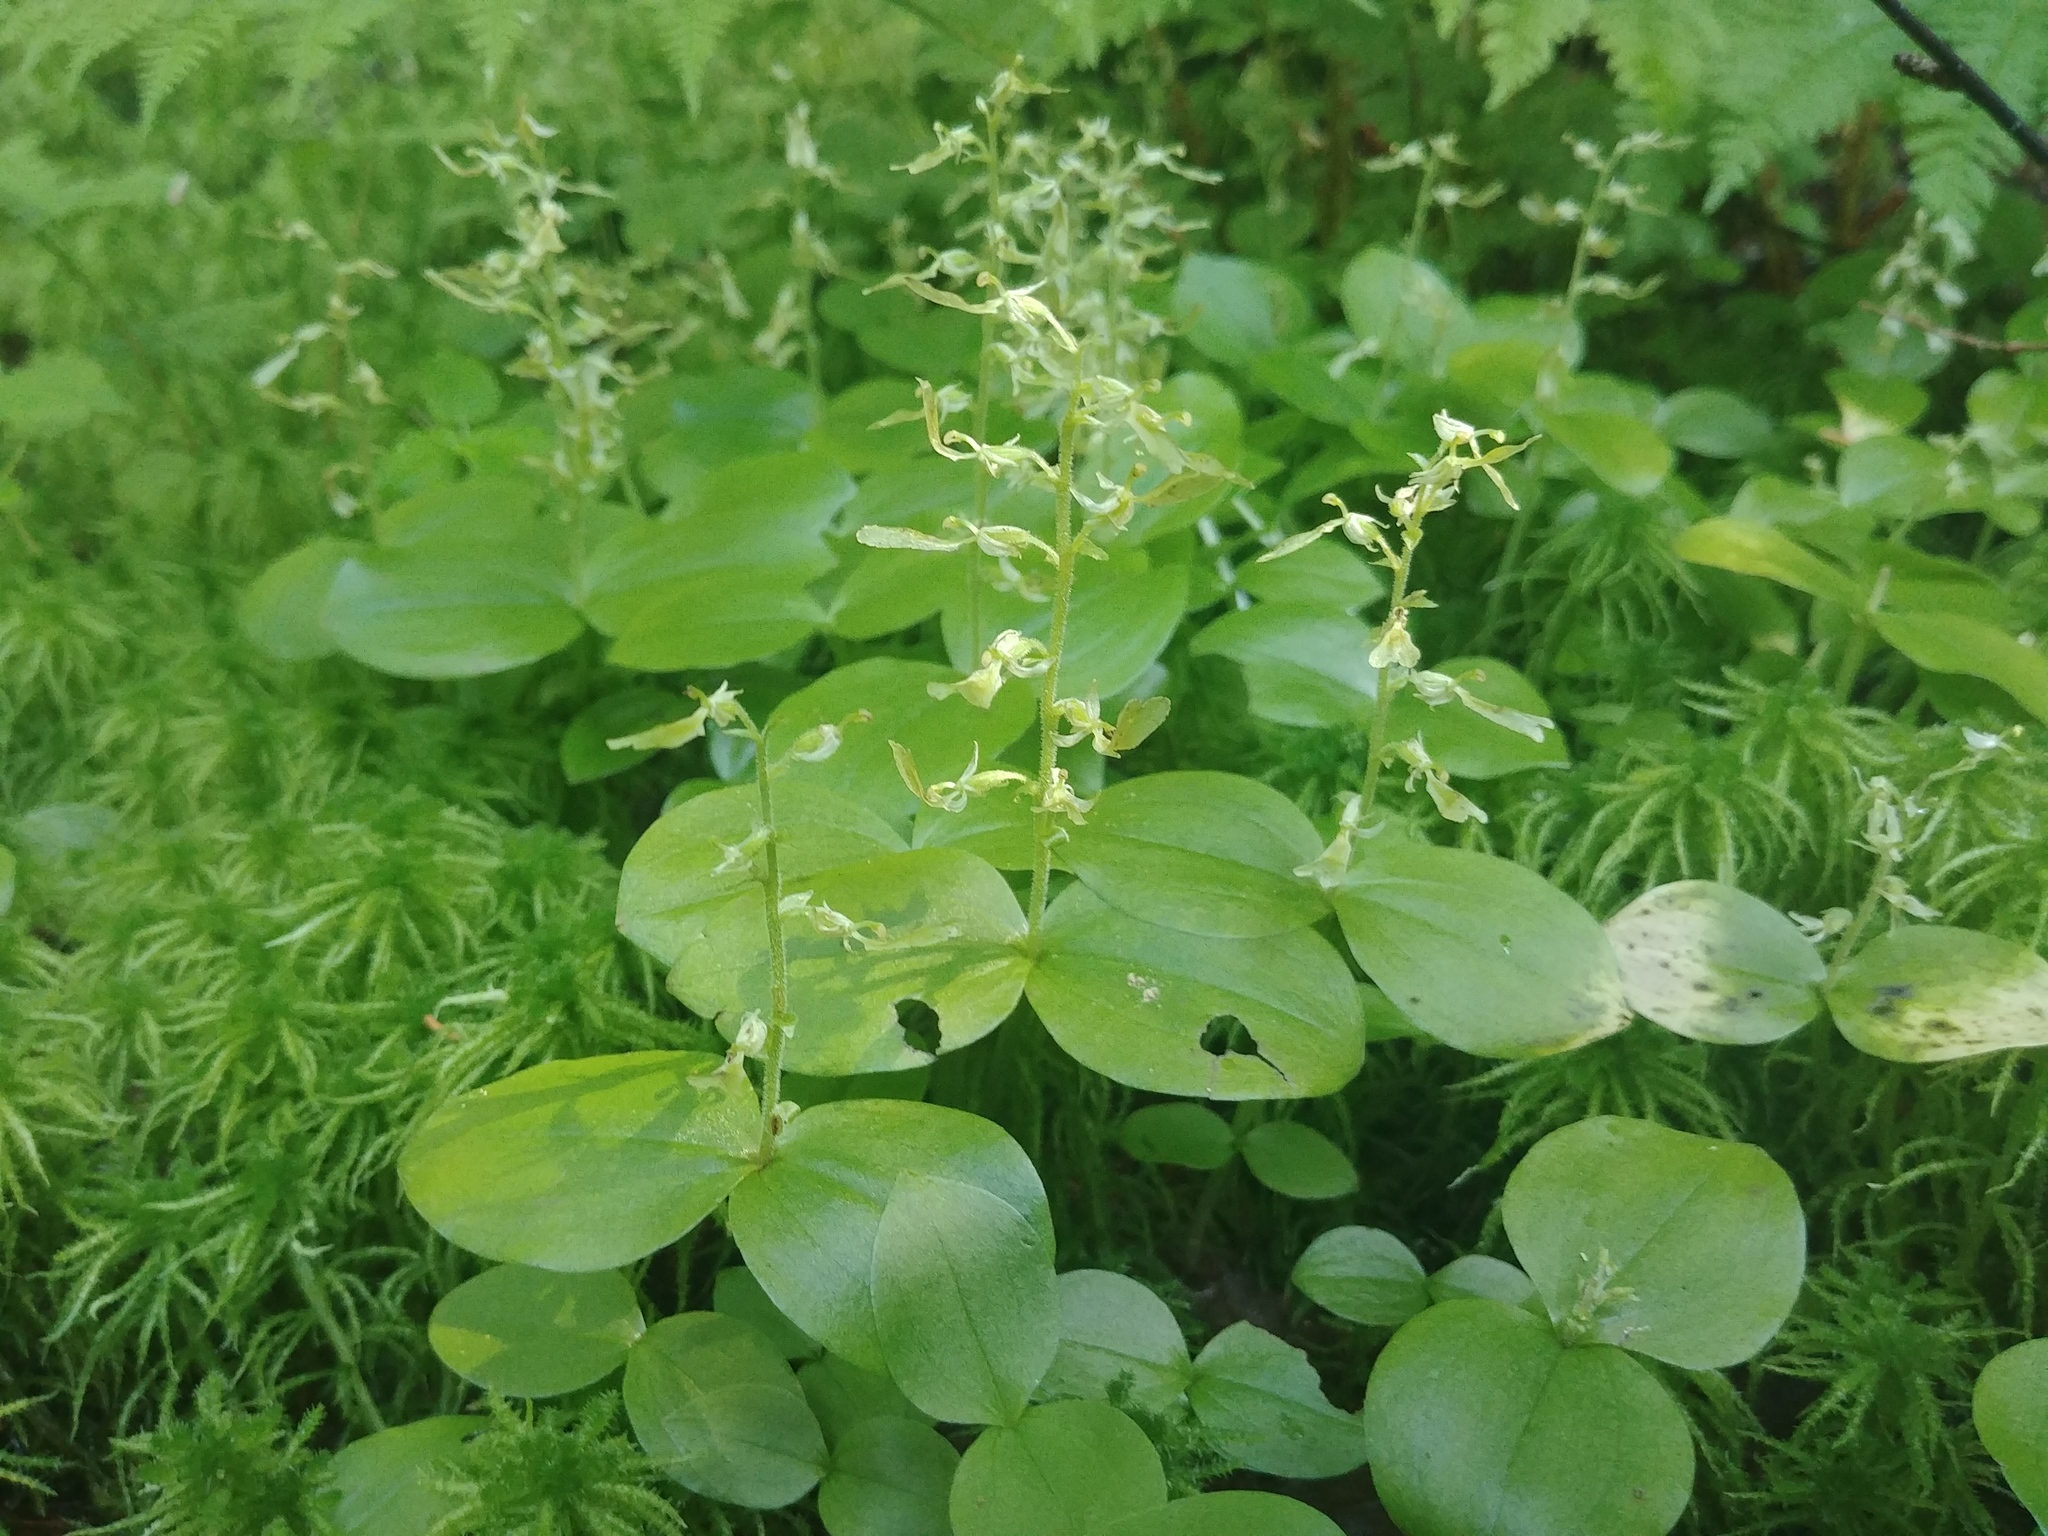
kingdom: Plantae
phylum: Tracheophyta
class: Liliopsida
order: Asparagales
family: Orchidaceae
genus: Neottia
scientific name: Neottia convallarioides
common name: Broadleaf twayblade
